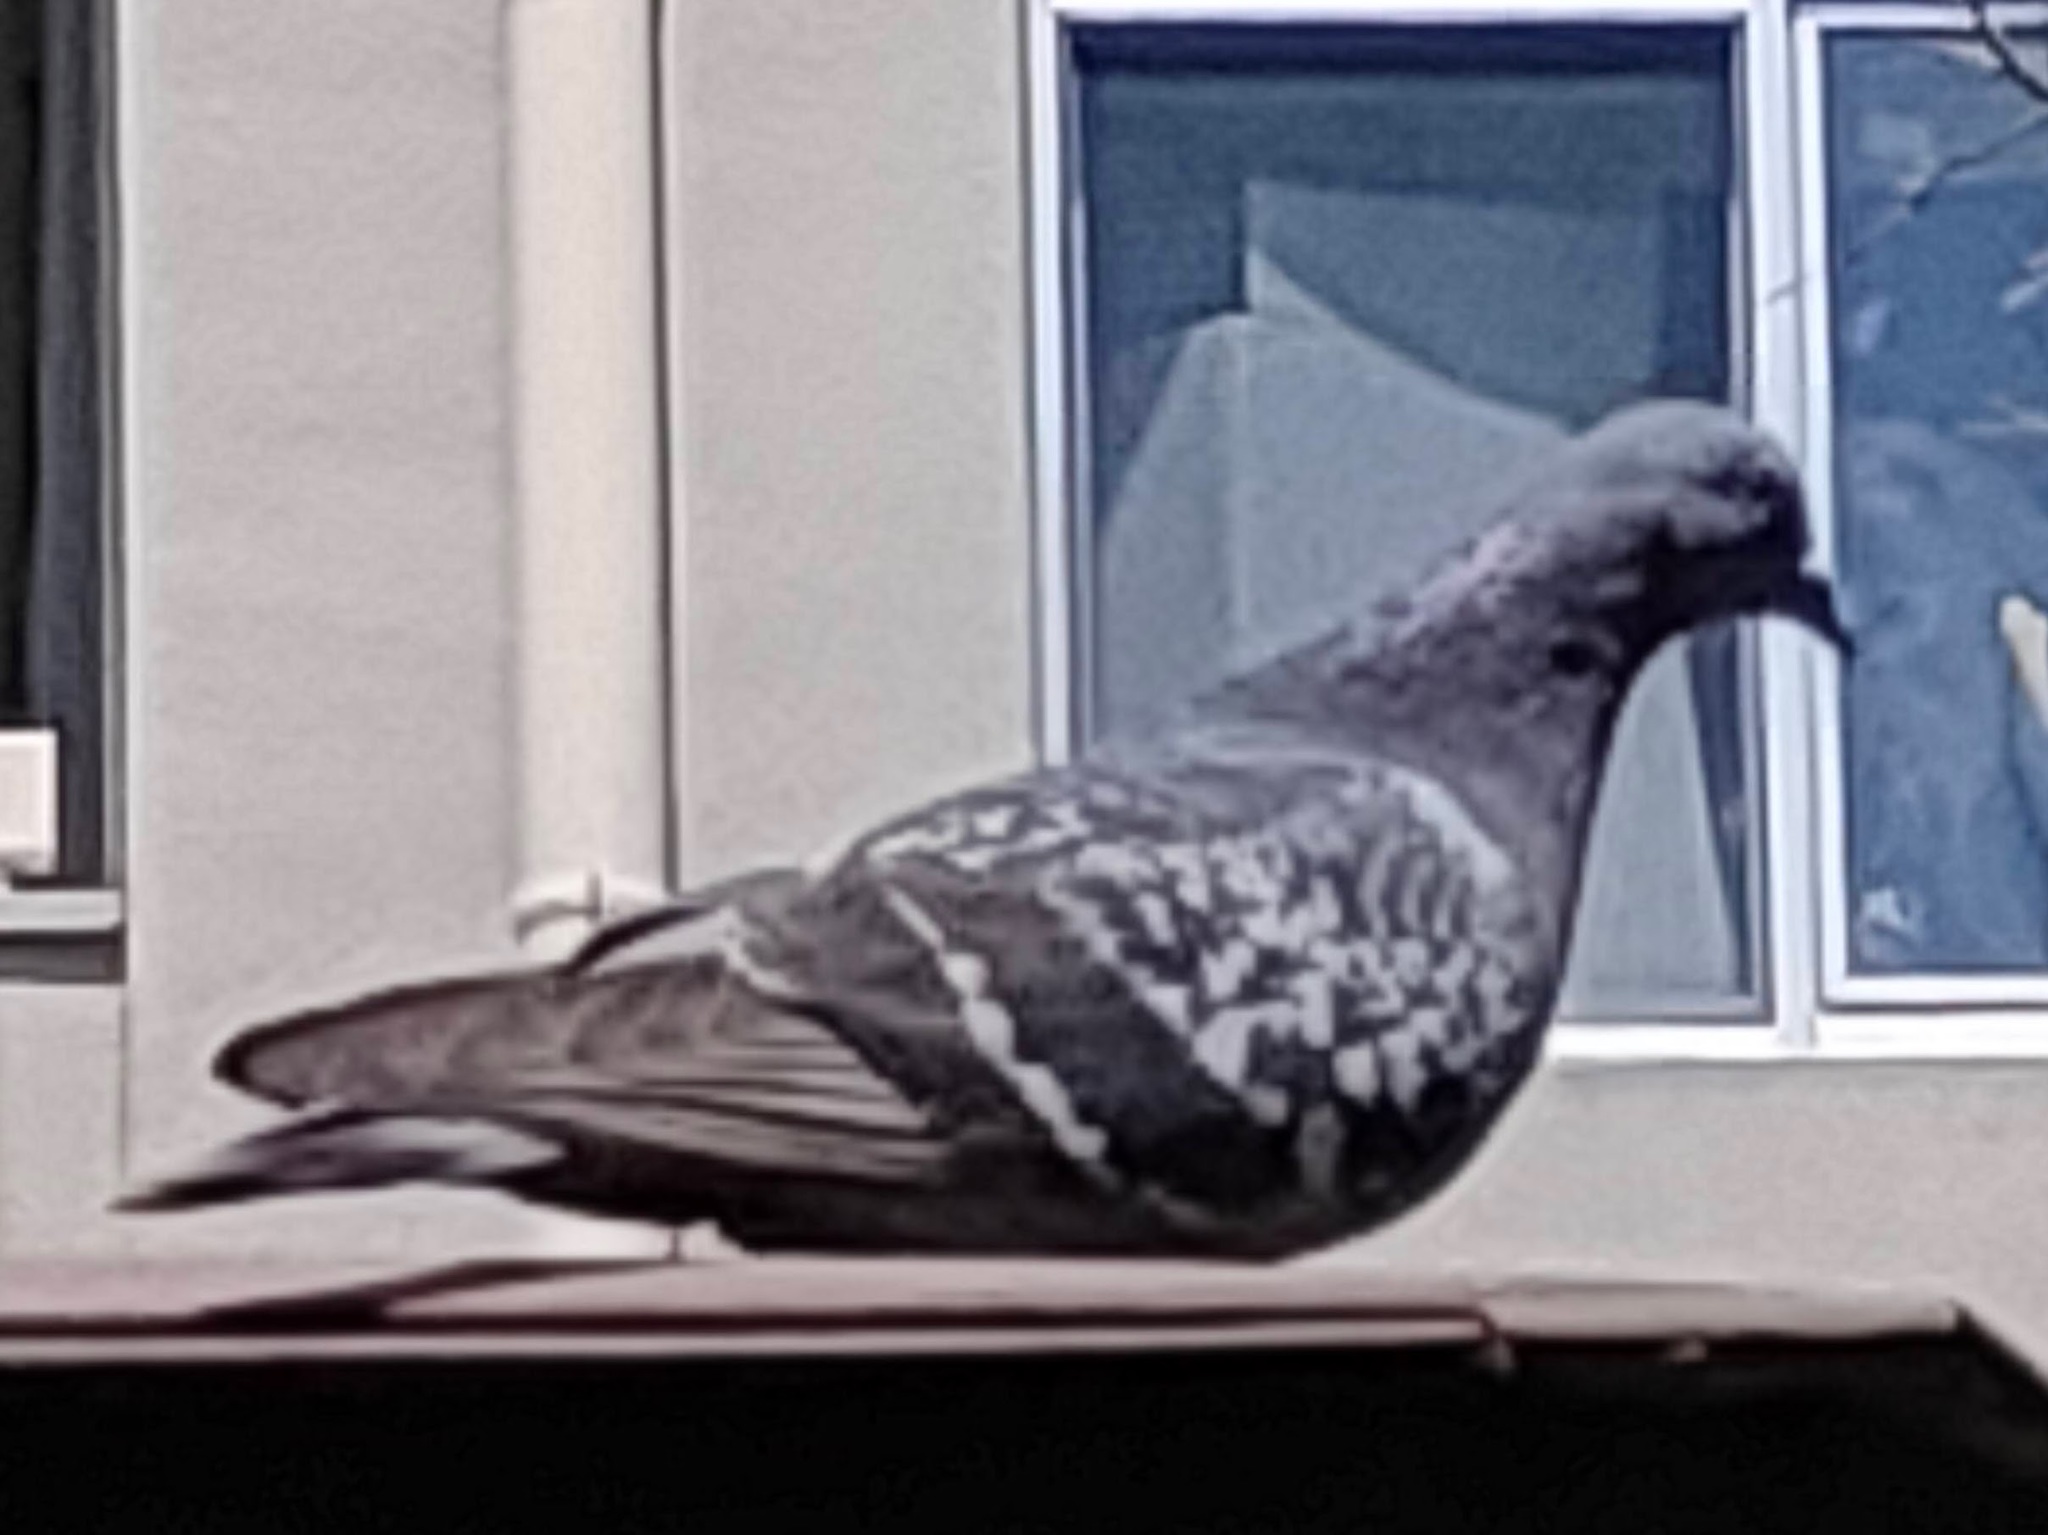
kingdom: Animalia
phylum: Chordata
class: Aves
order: Columbiformes
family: Columbidae
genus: Columba
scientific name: Columba livia
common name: Rock pigeon
